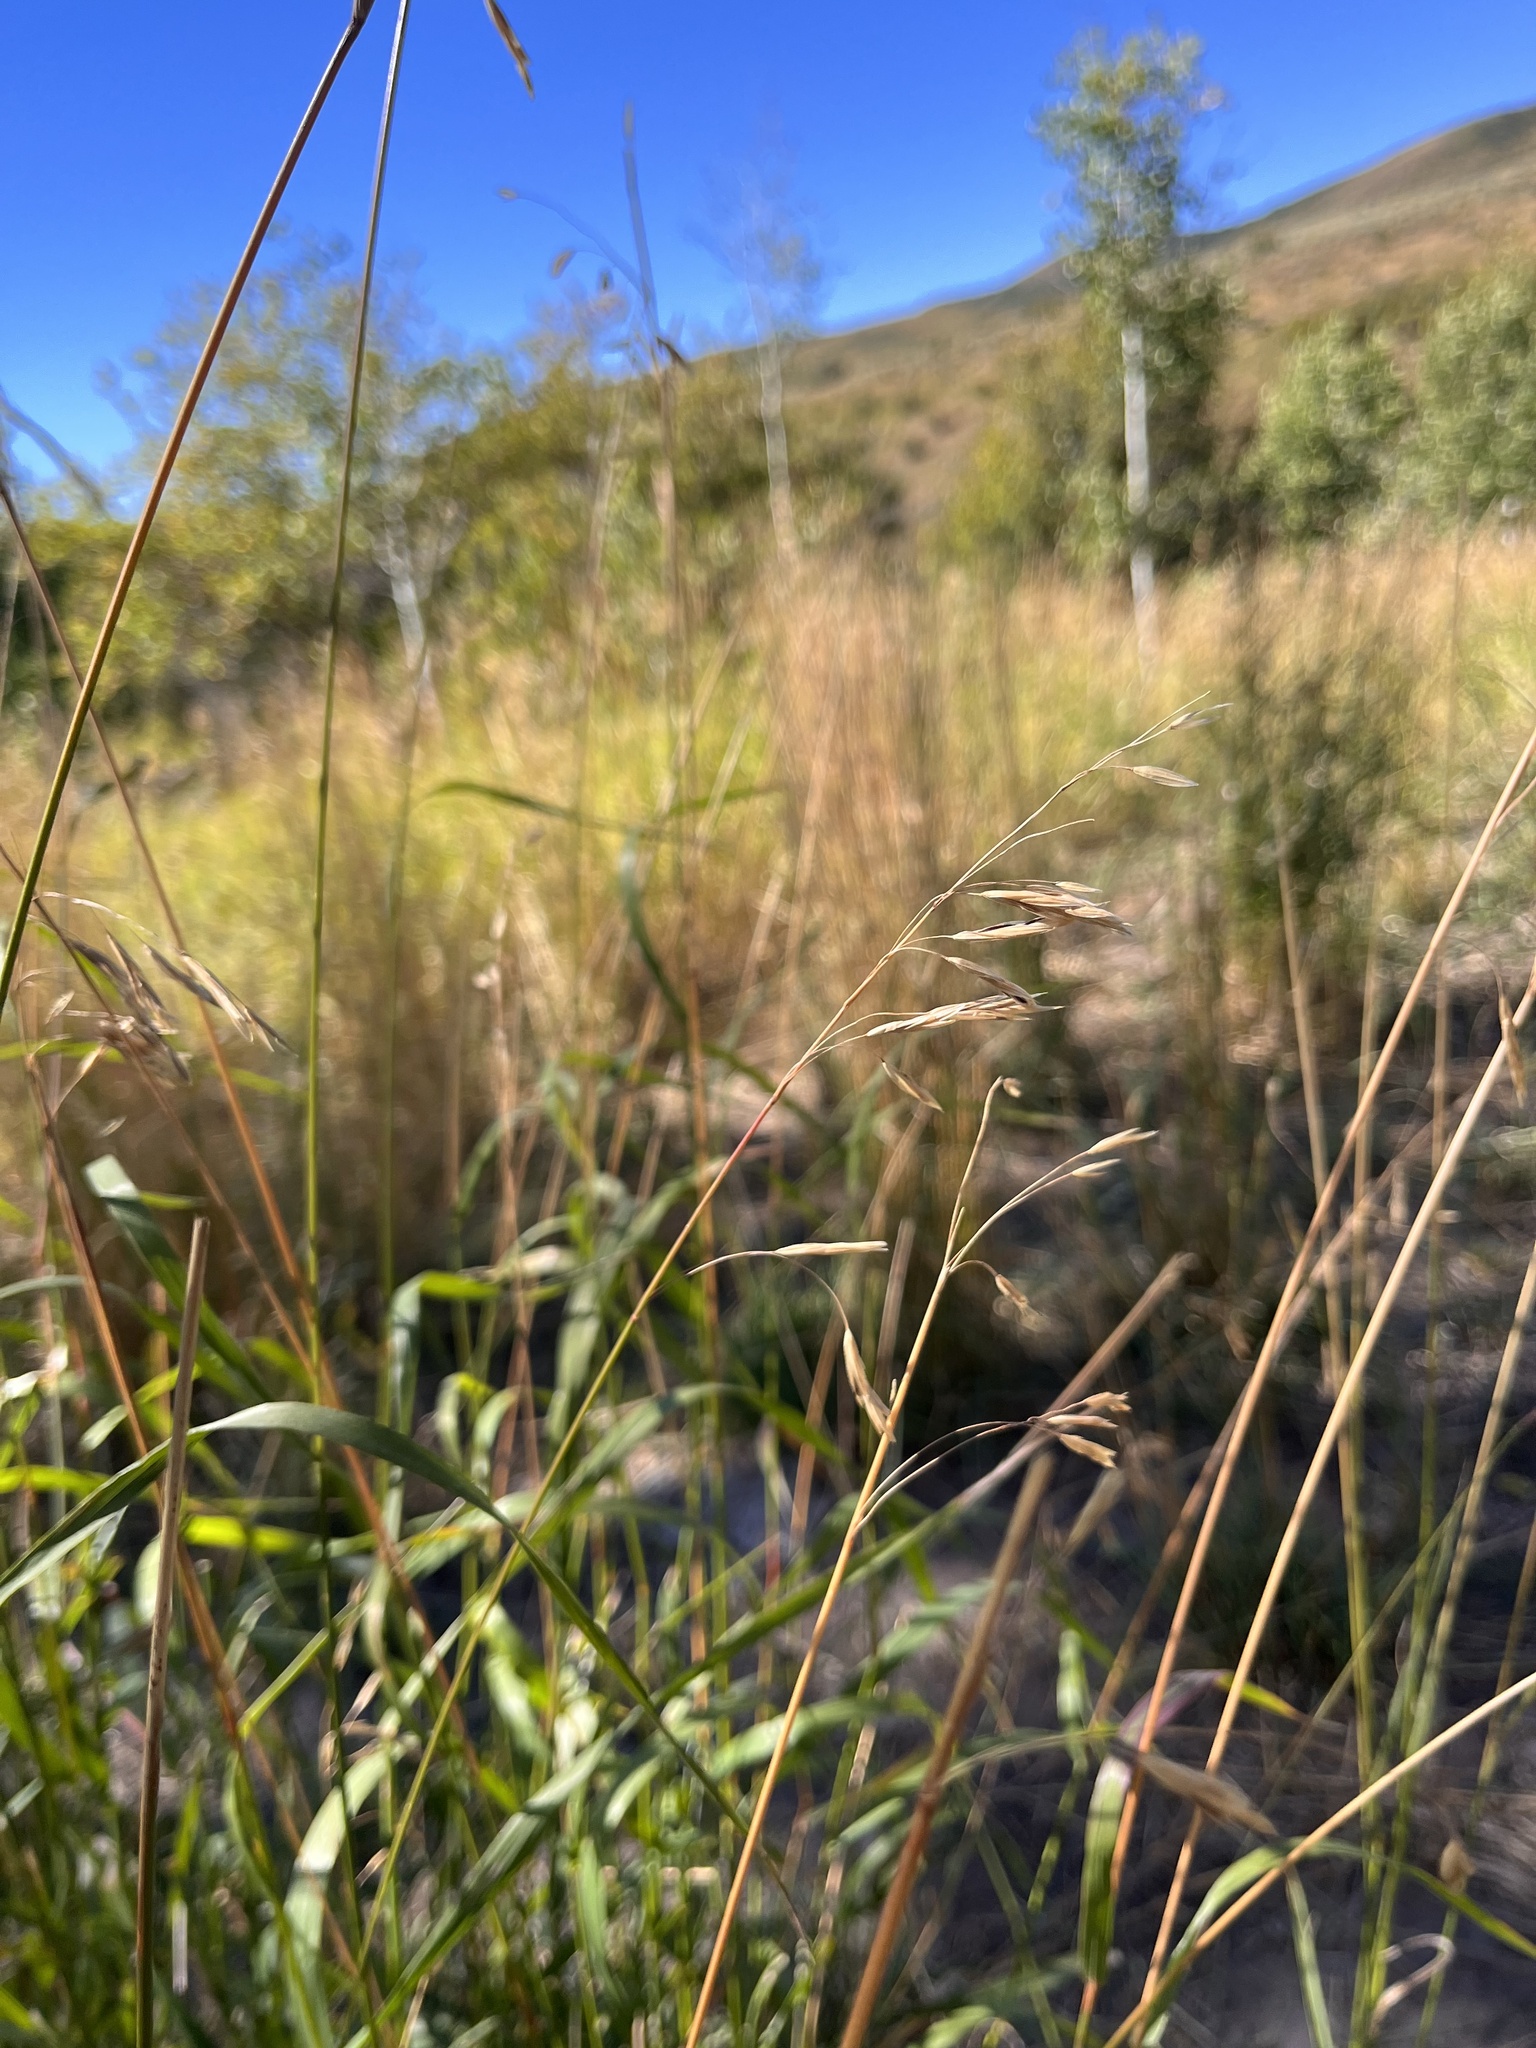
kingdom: Plantae
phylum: Tracheophyta
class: Liliopsida
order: Poales
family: Poaceae
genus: Bromus
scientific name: Bromus inermis
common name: Smooth brome
